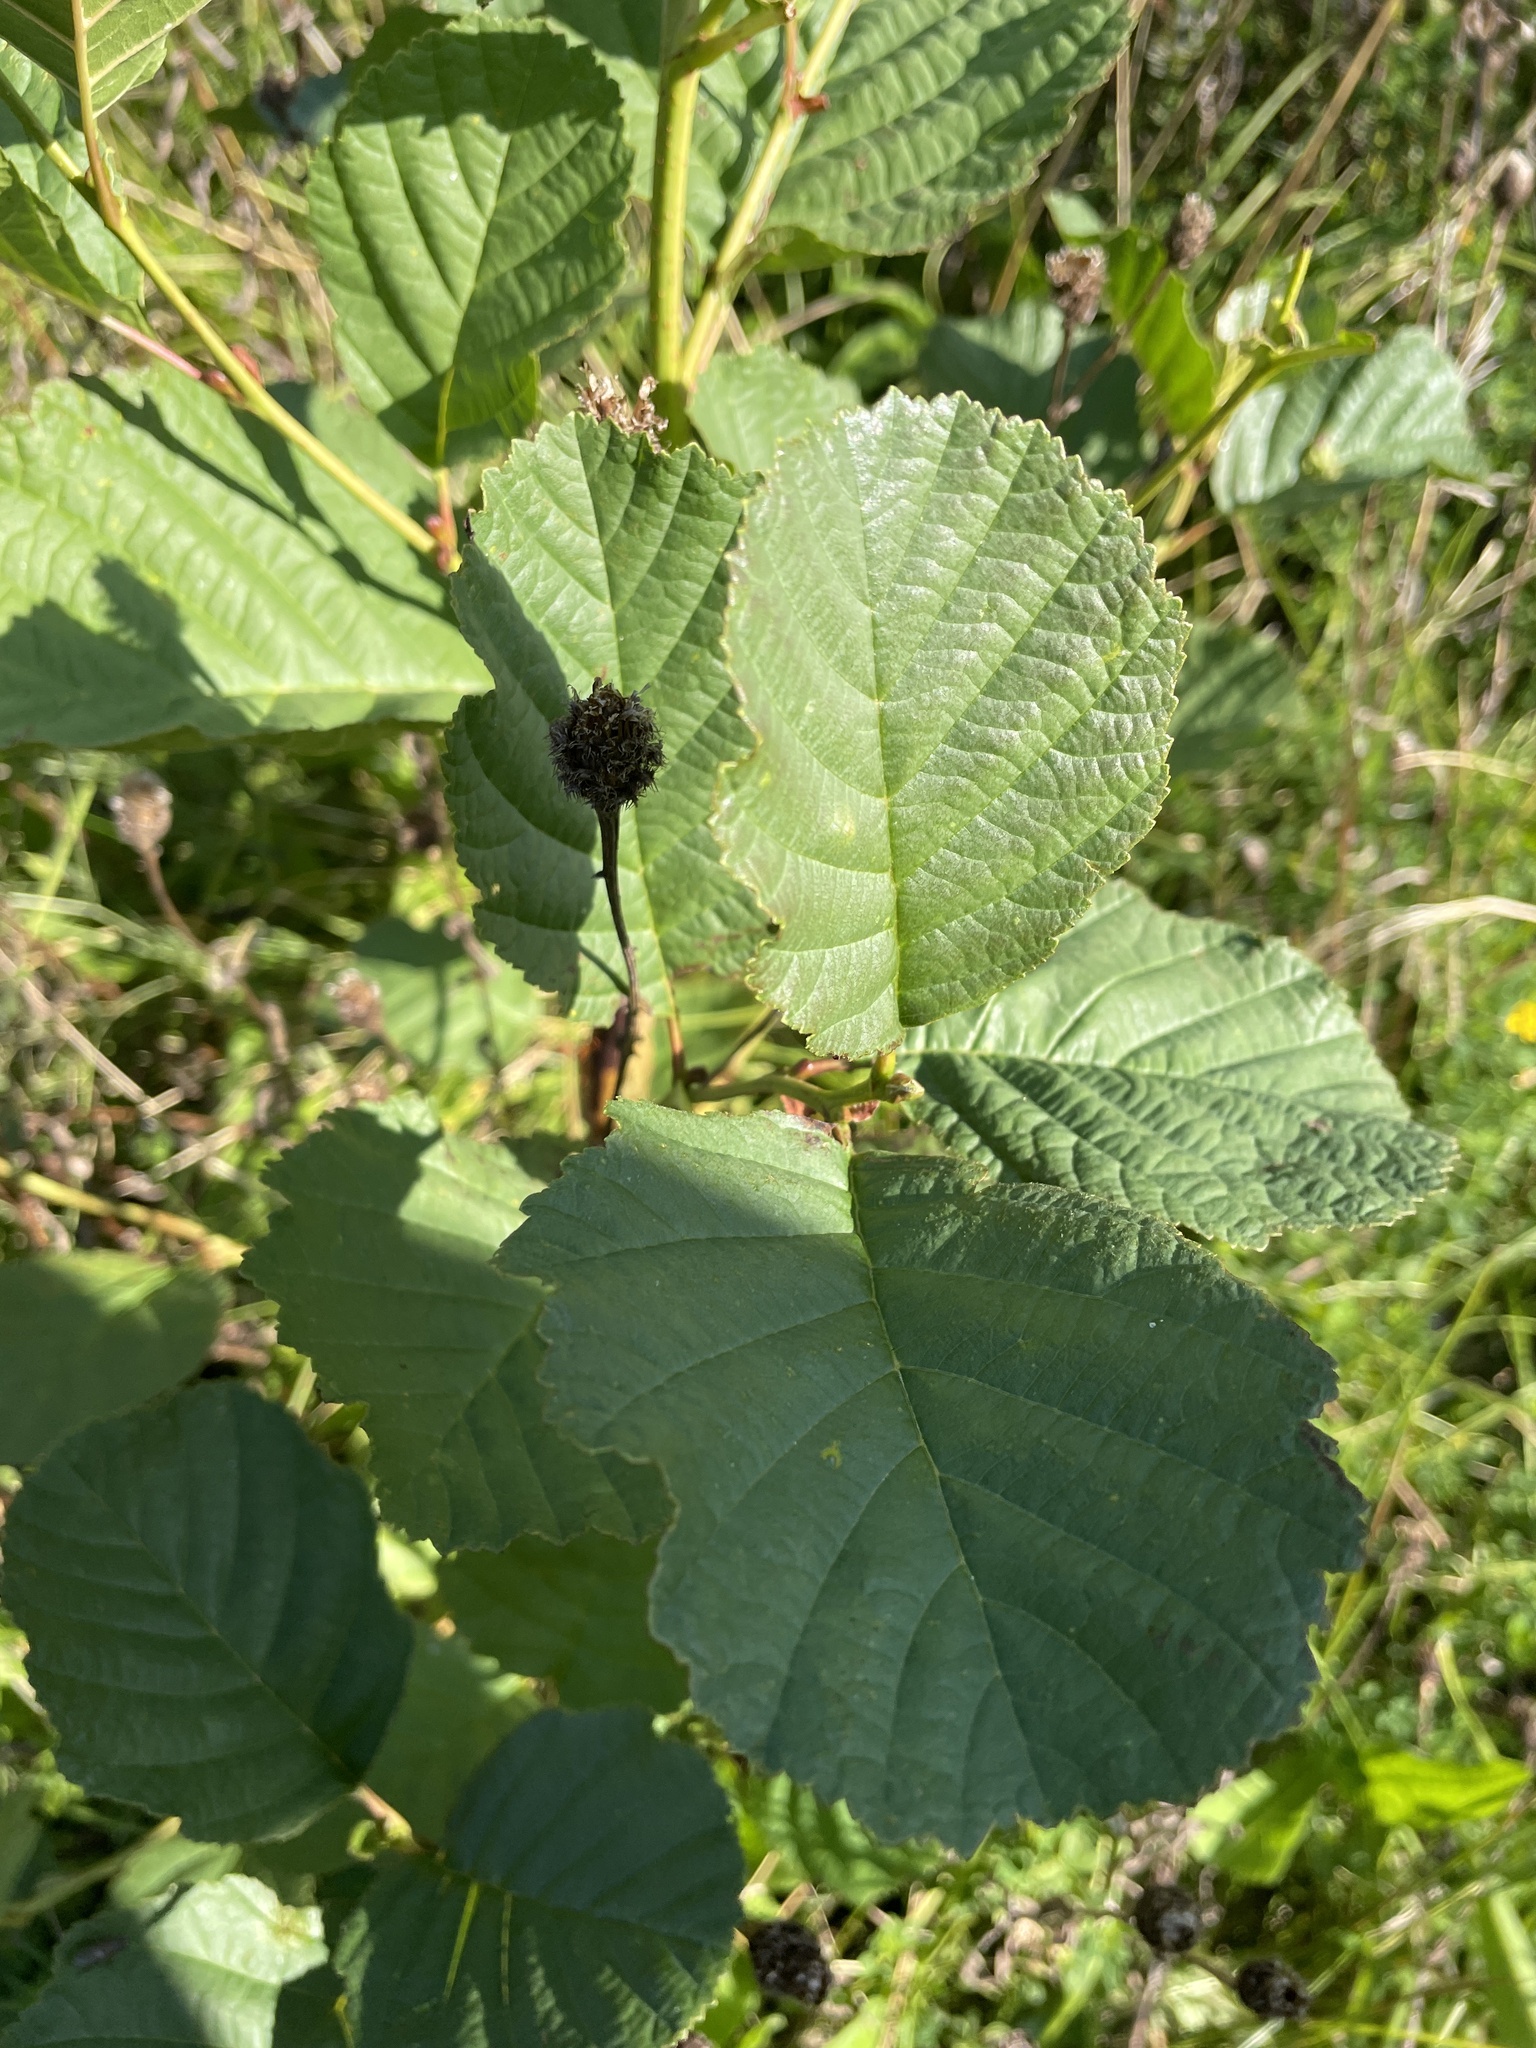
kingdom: Plantae
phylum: Tracheophyta
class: Magnoliopsida
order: Fagales
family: Betulaceae
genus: Alnus
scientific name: Alnus glutinosa
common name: Black alder
